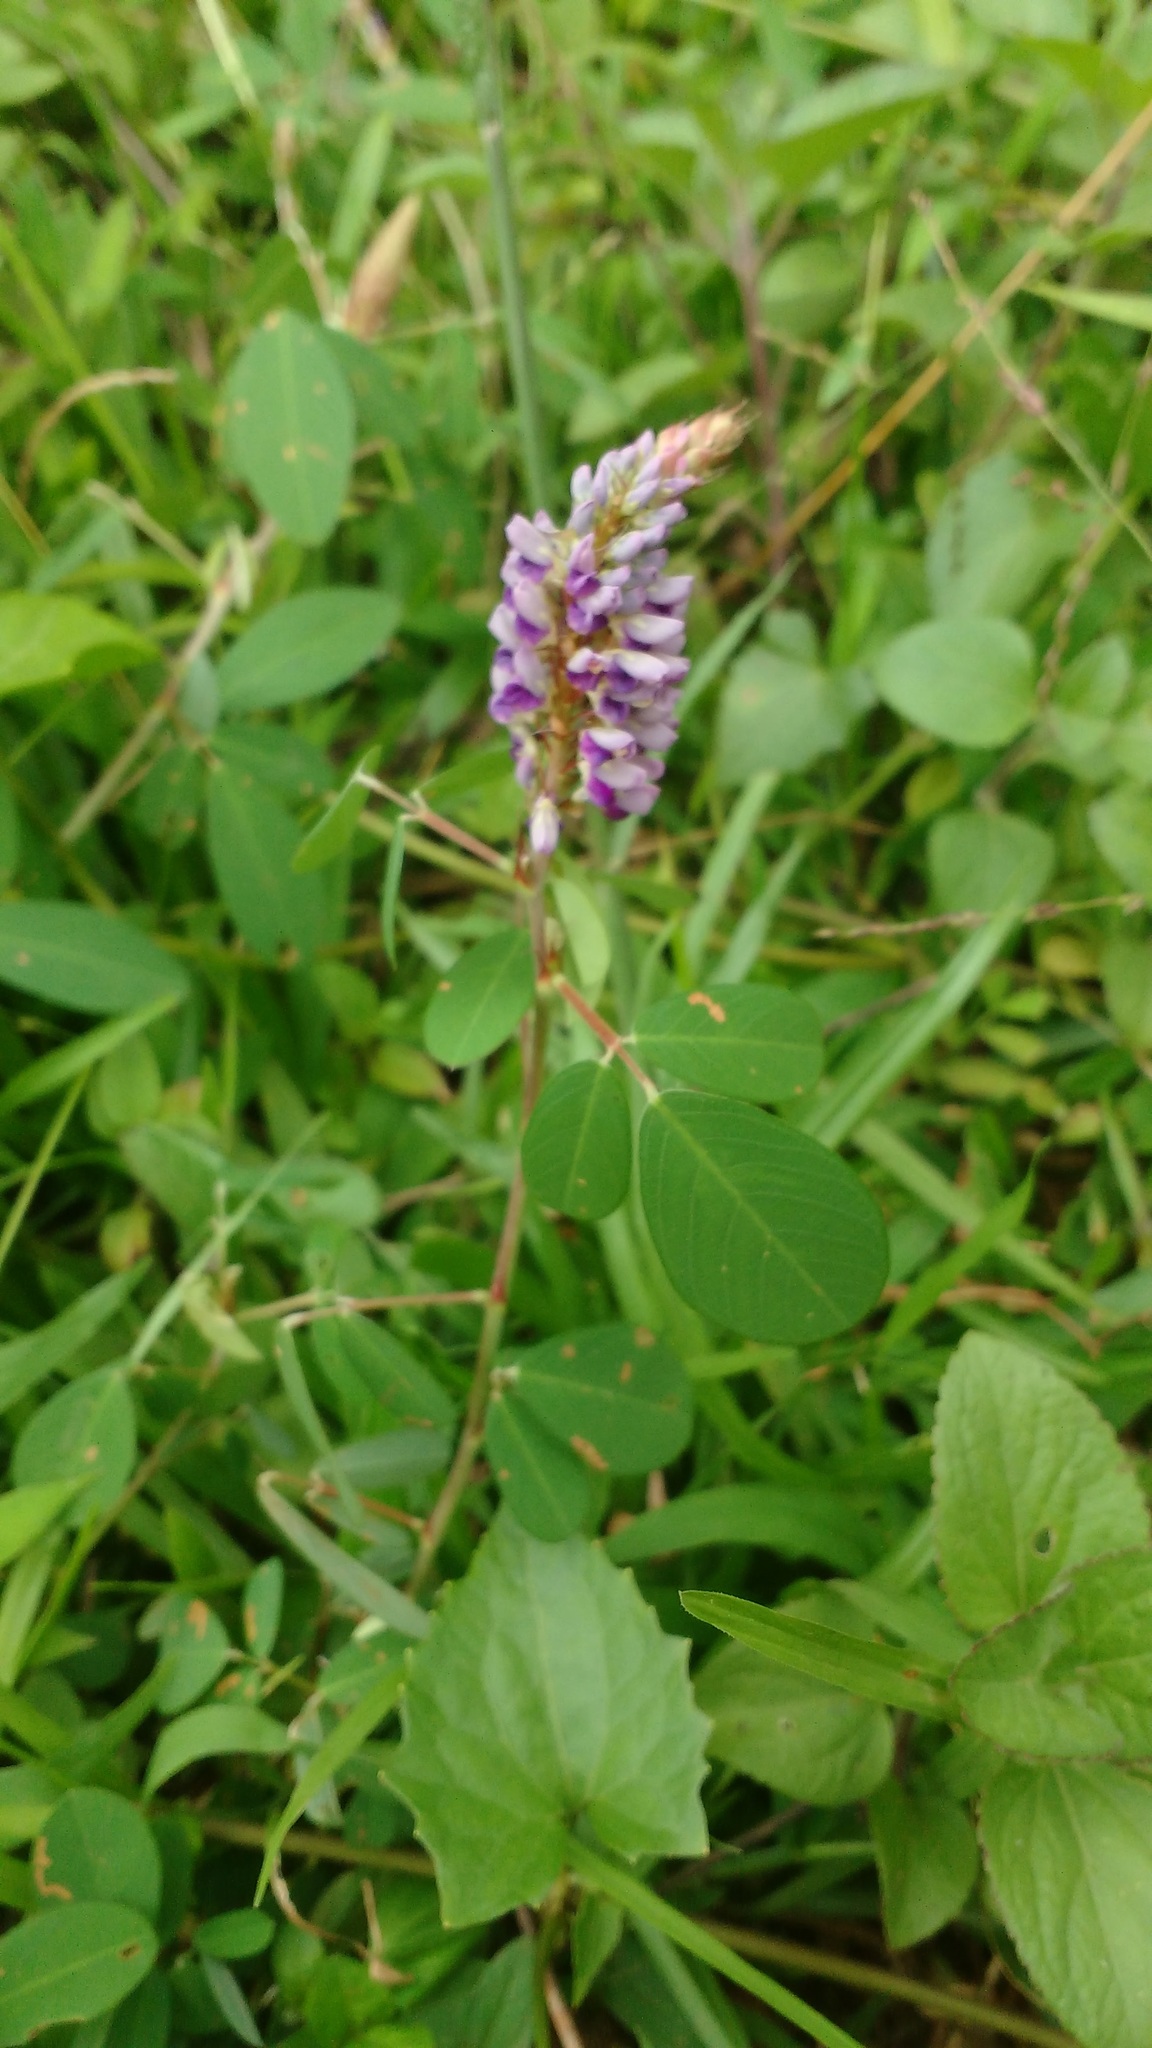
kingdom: Plantae
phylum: Tracheophyta
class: Magnoliopsida
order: Fabales
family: Fabaceae
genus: Grona
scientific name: Grona heterocarpos
